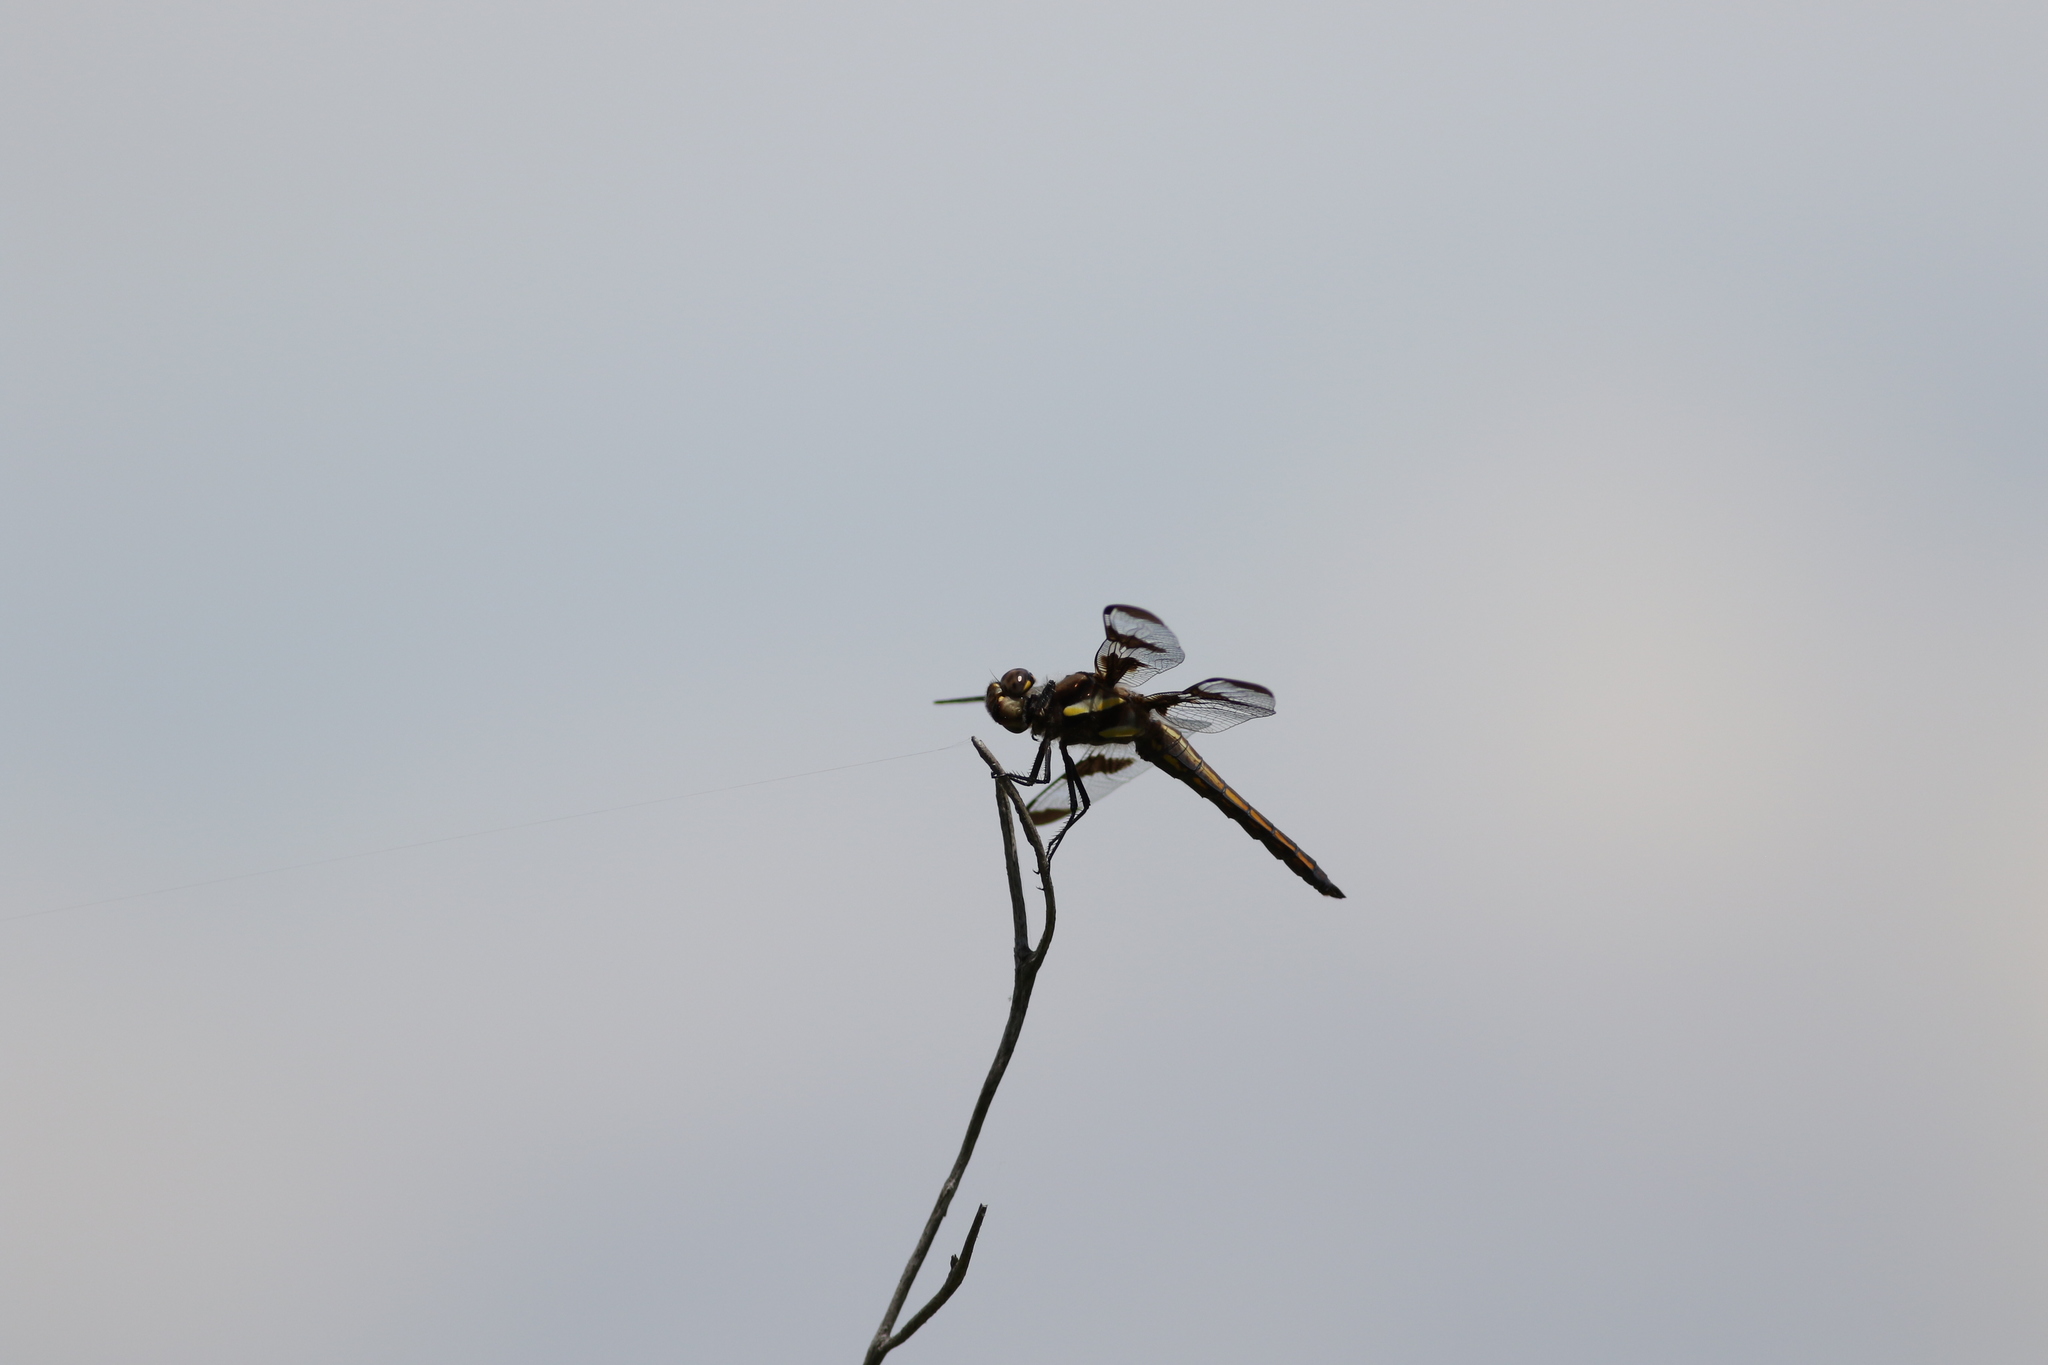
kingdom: Animalia
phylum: Arthropoda
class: Insecta
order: Odonata
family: Libellulidae
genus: Libellula
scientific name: Libellula pulchella
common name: Twelve-spotted skimmer
